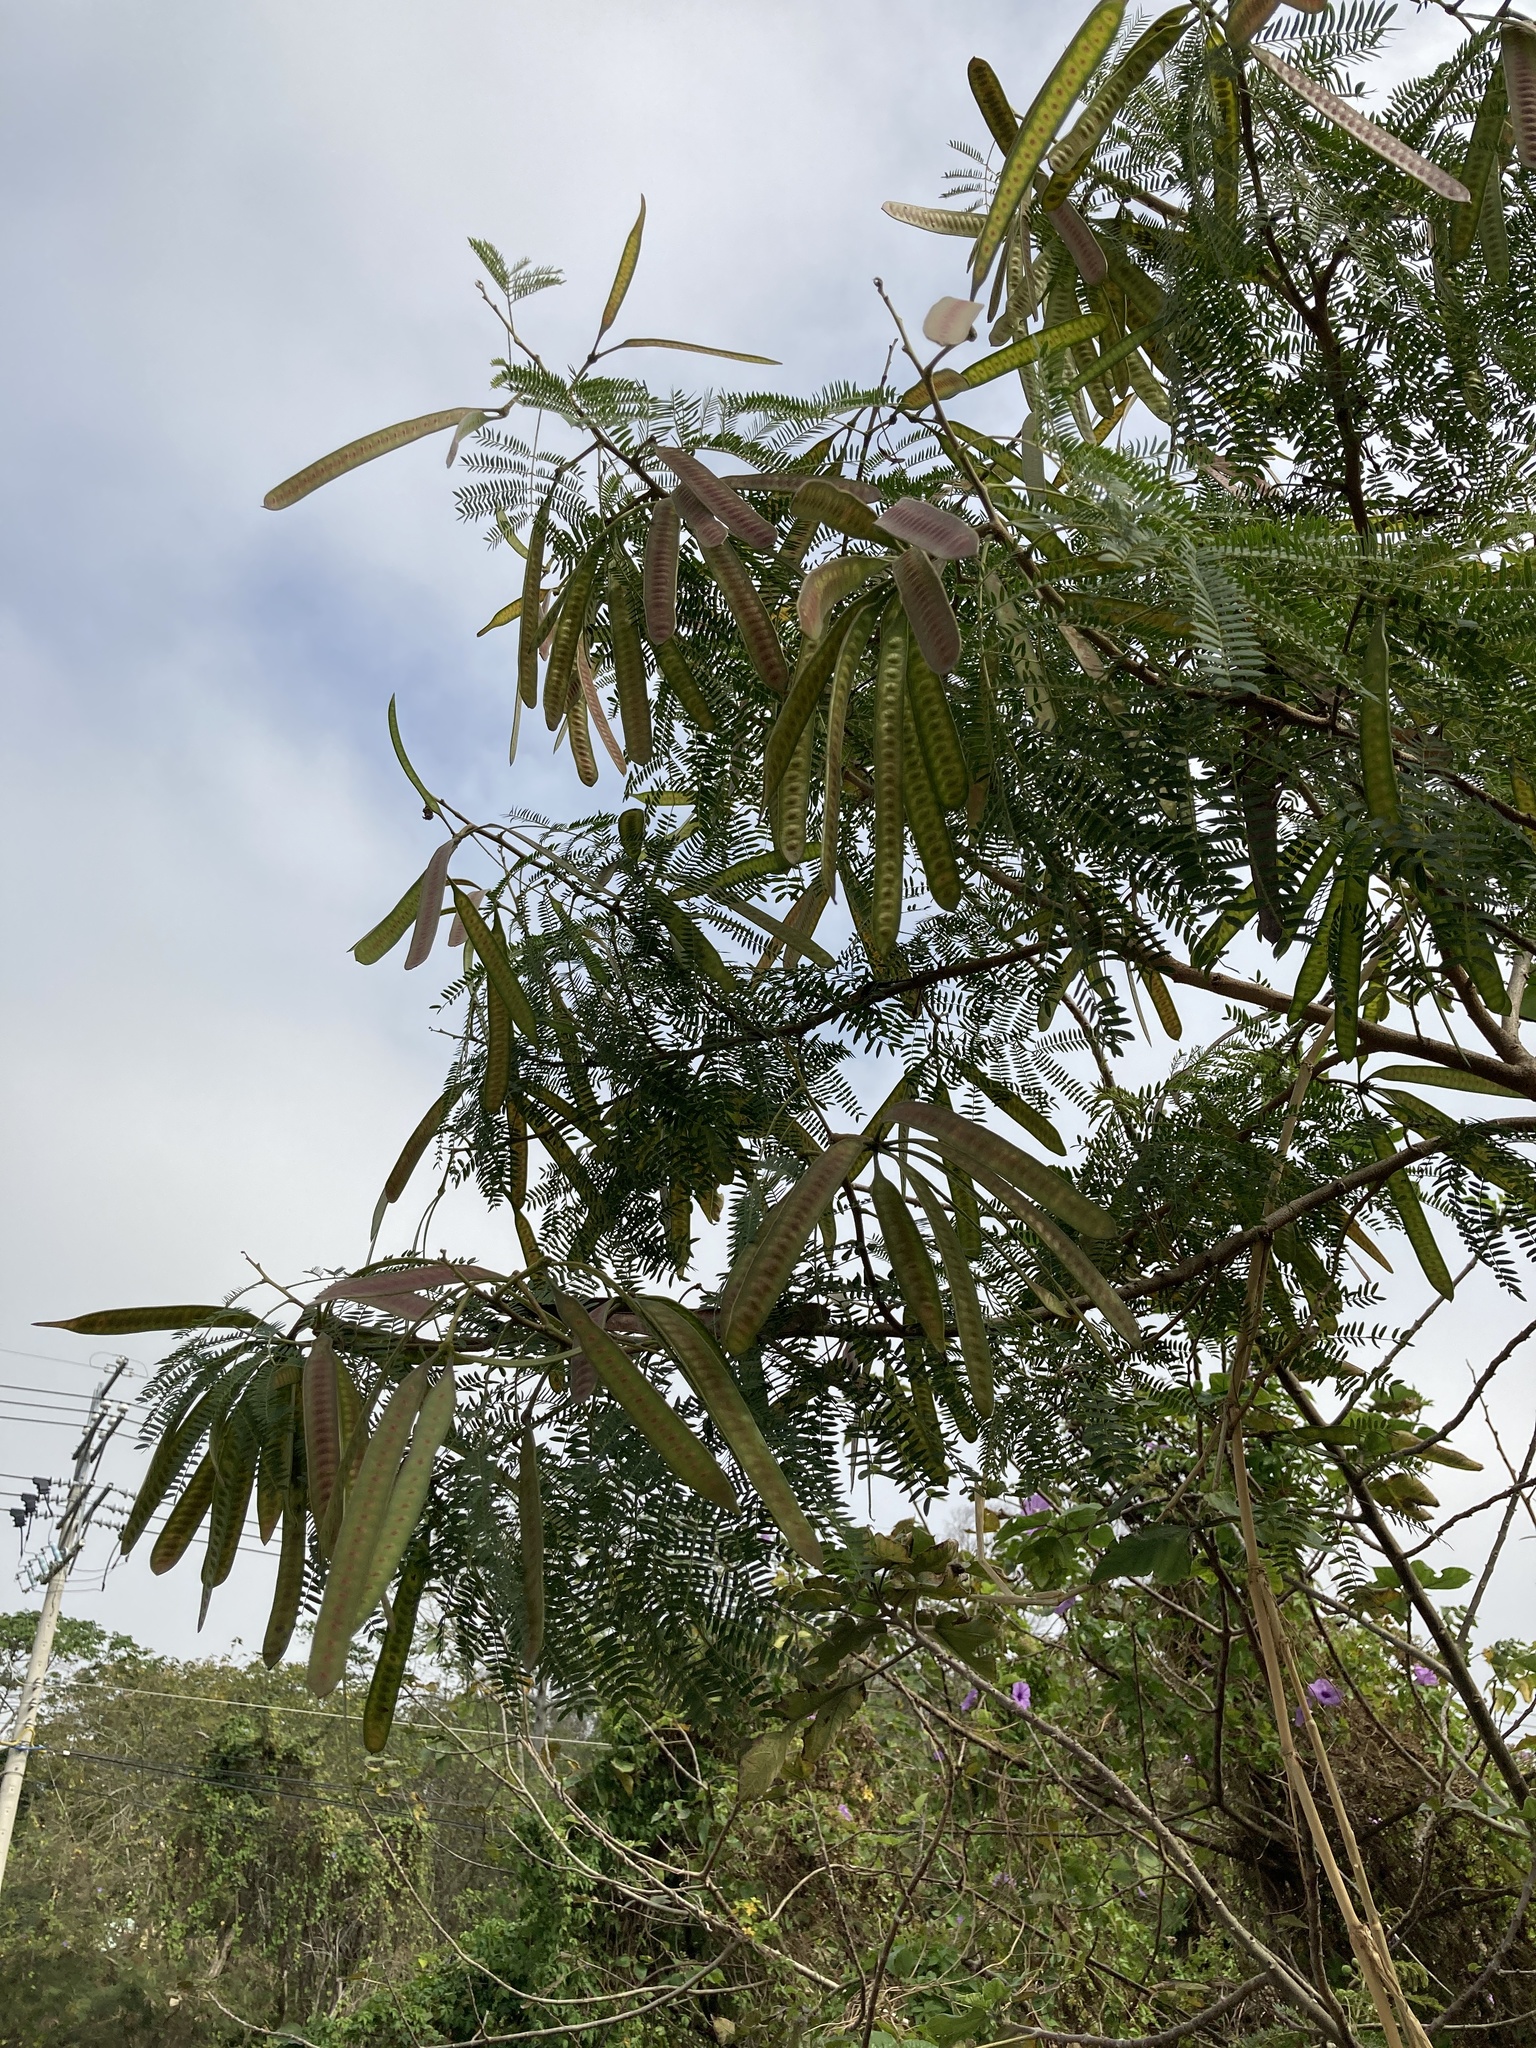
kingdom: Plantae
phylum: Tracheophyta
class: Magnoliopsida
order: Fabales
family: Fabaceae
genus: Leucaena
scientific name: Leucaena leucocephala
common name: White leadtree
